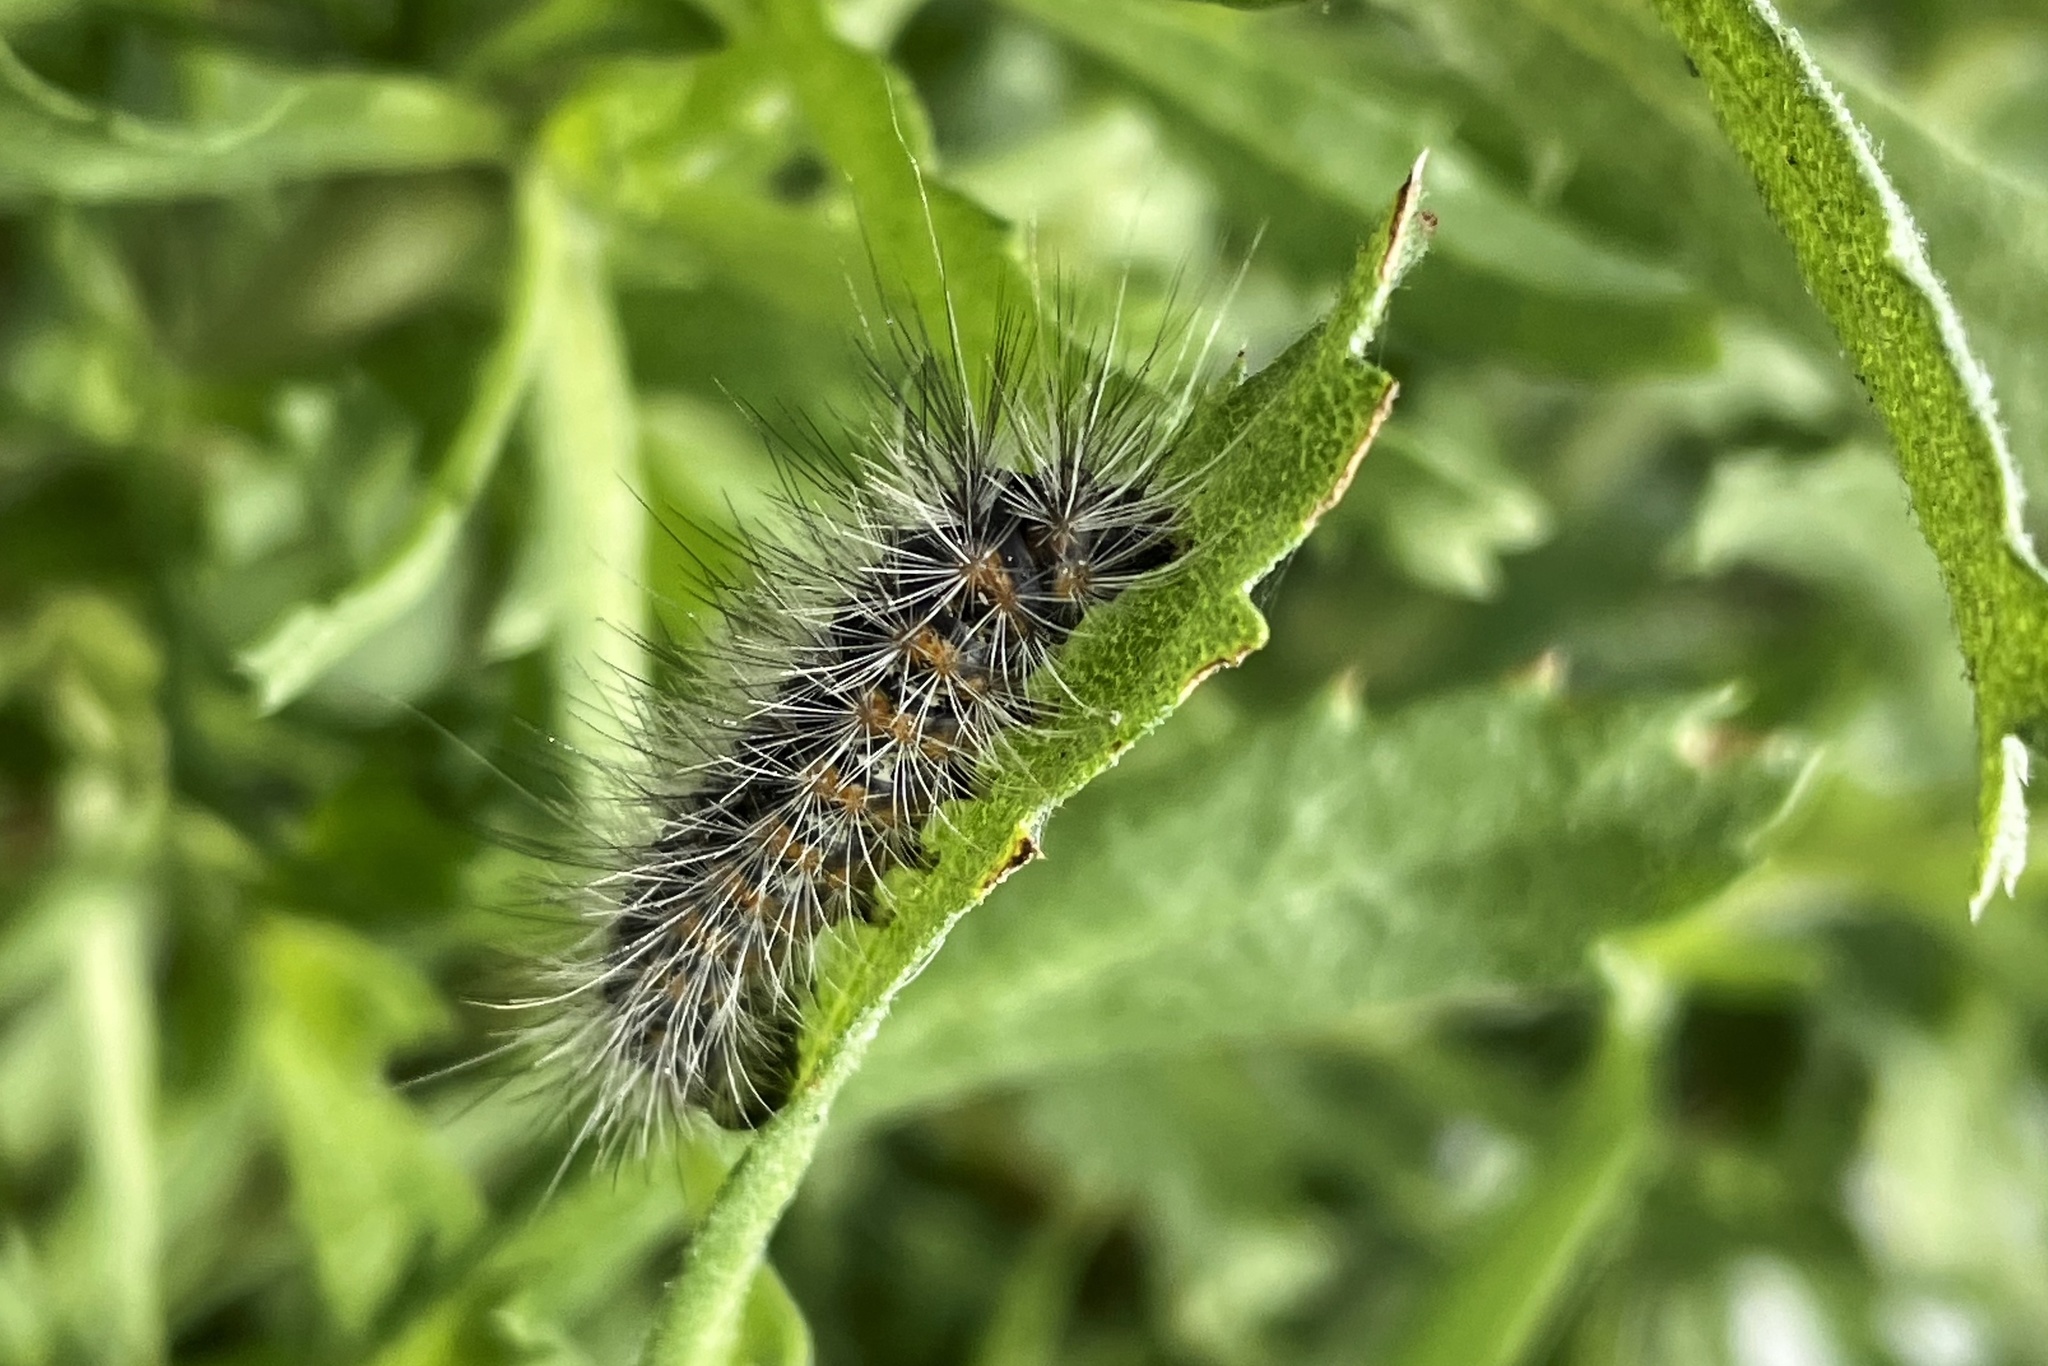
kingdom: Animalia
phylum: Arthropoda
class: Insecta
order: Lepidoptera
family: Erebidae
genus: Estigmene
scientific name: Estigmene acrea
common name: Salt marsh moth
